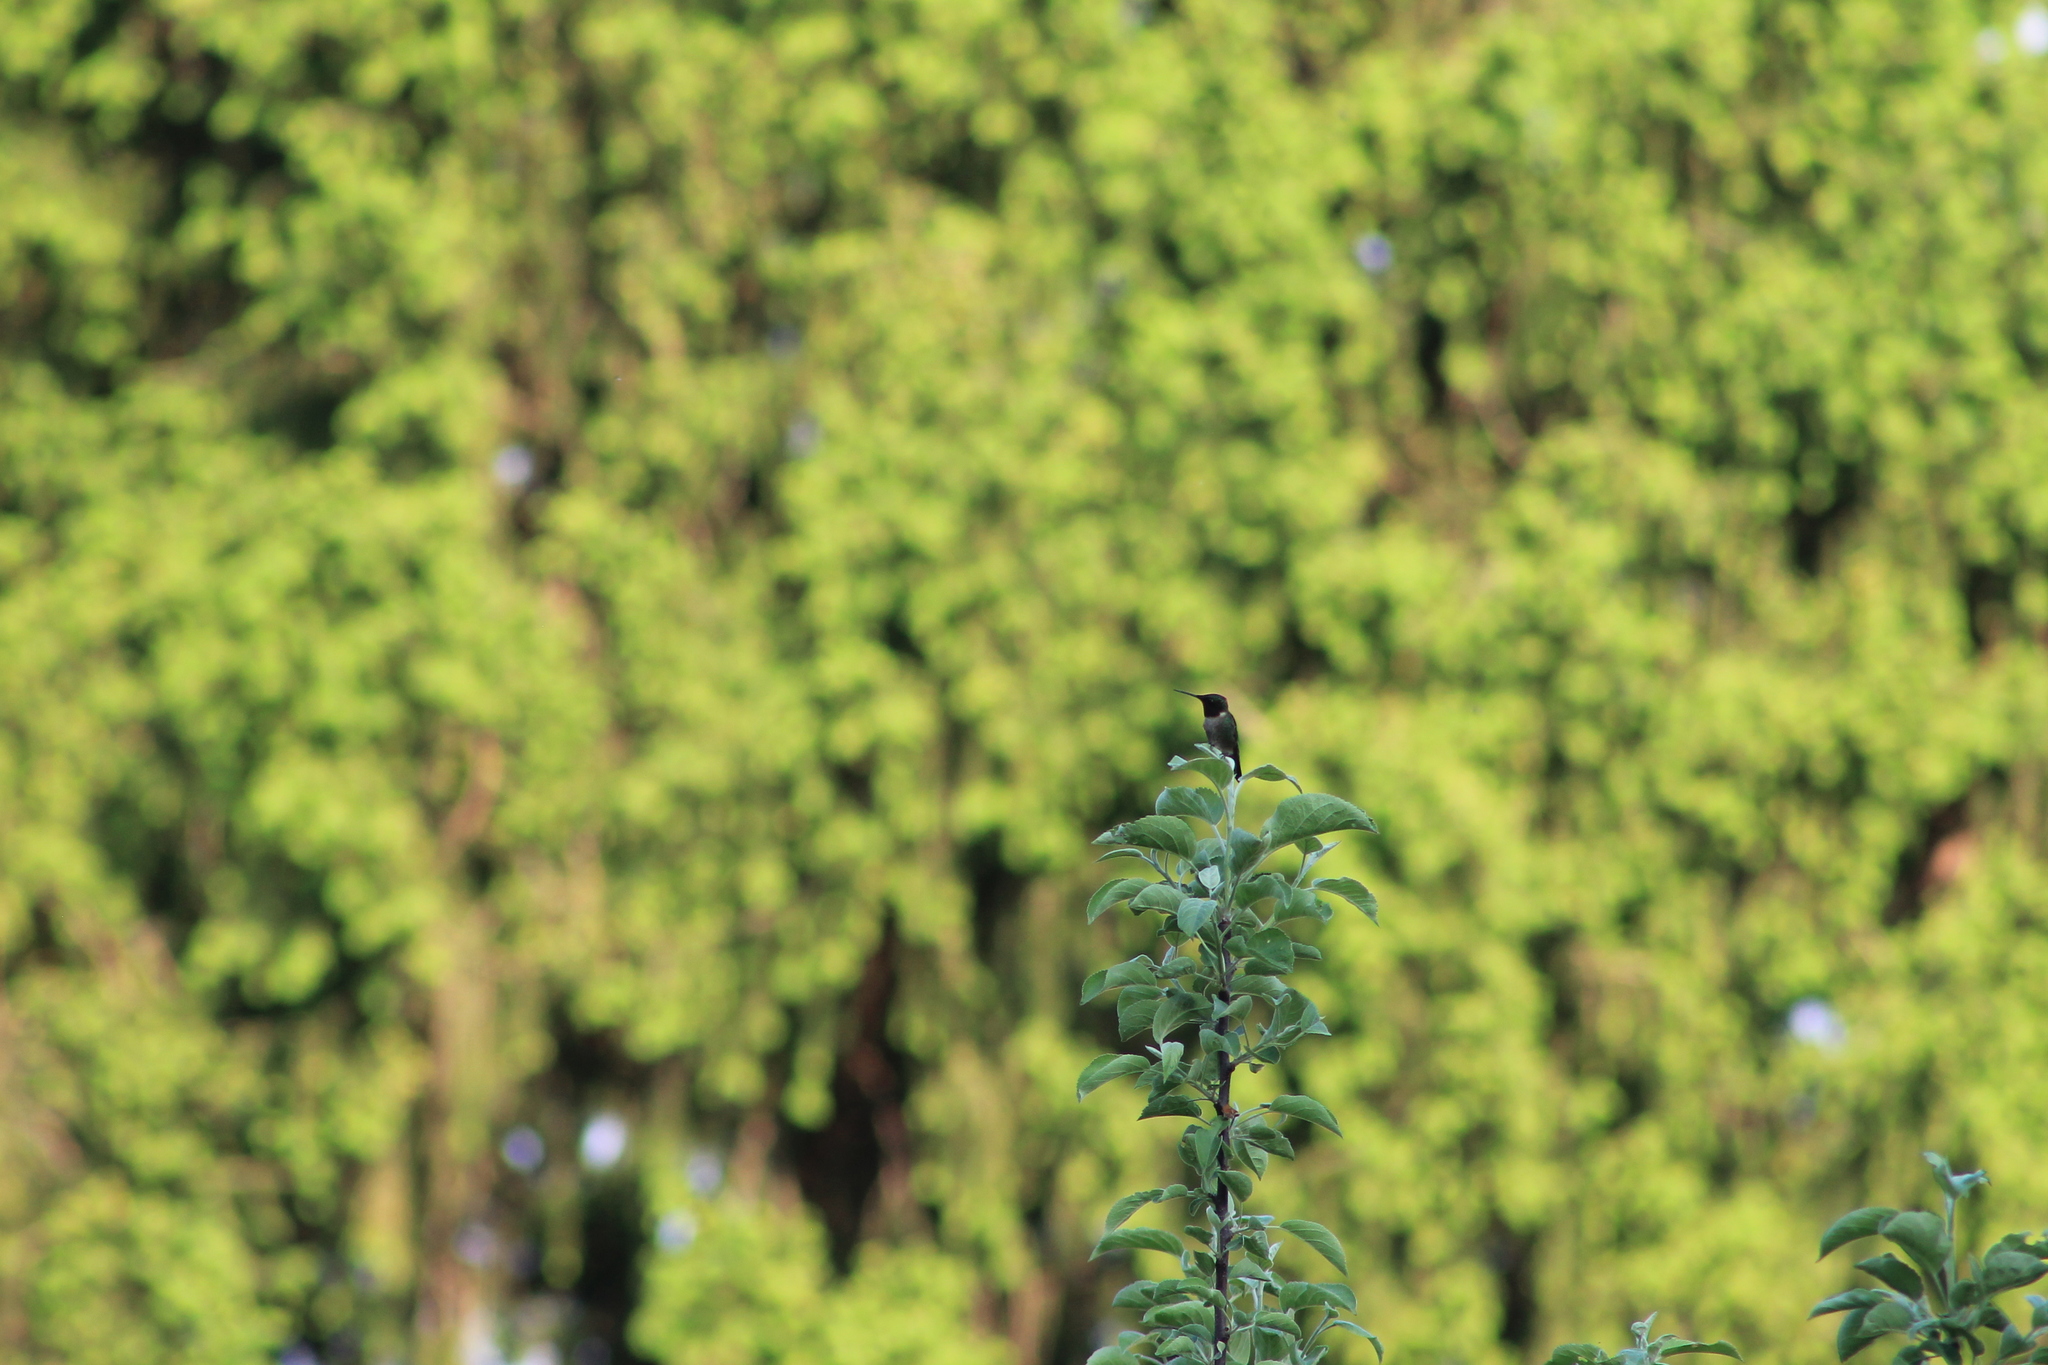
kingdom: Animalia
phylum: Chordata
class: Aves
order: Apodiformes
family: Trochilidae
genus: Archilochus
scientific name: Archilochus colubris
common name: Ruby-throated hummingbird
